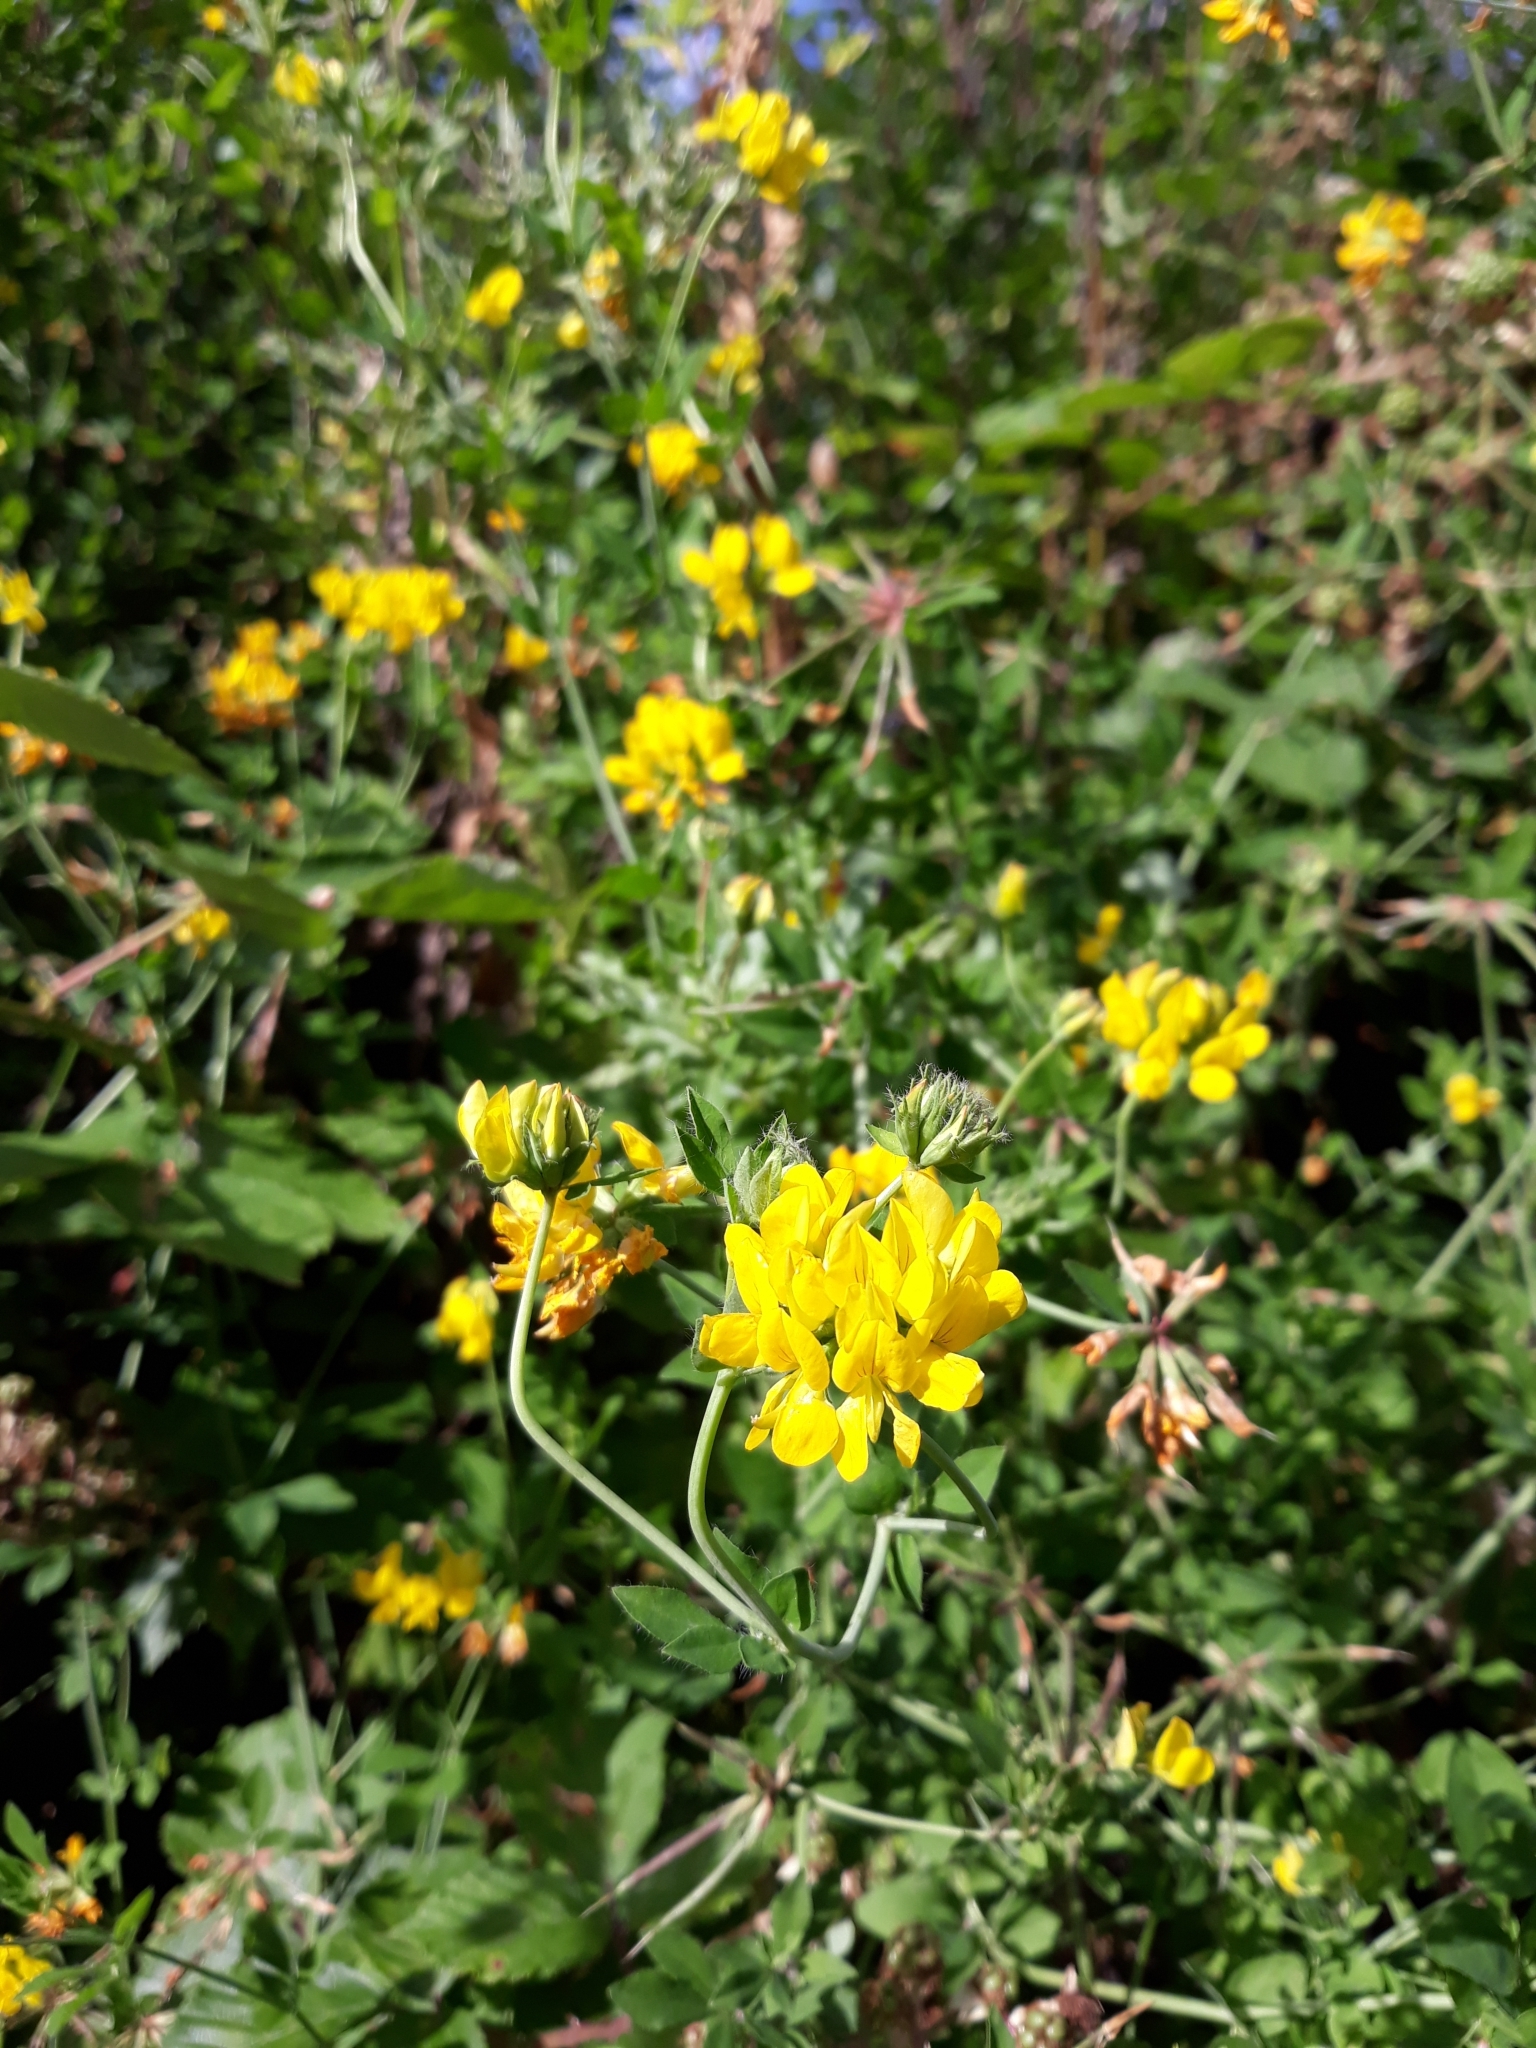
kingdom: Plantae
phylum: Tracheophyta
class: Magnoliopsida
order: Fabales
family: Fabaceae
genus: Lotus
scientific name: Lotus pedunculatus
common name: Greater birdsfoot-trefoil
